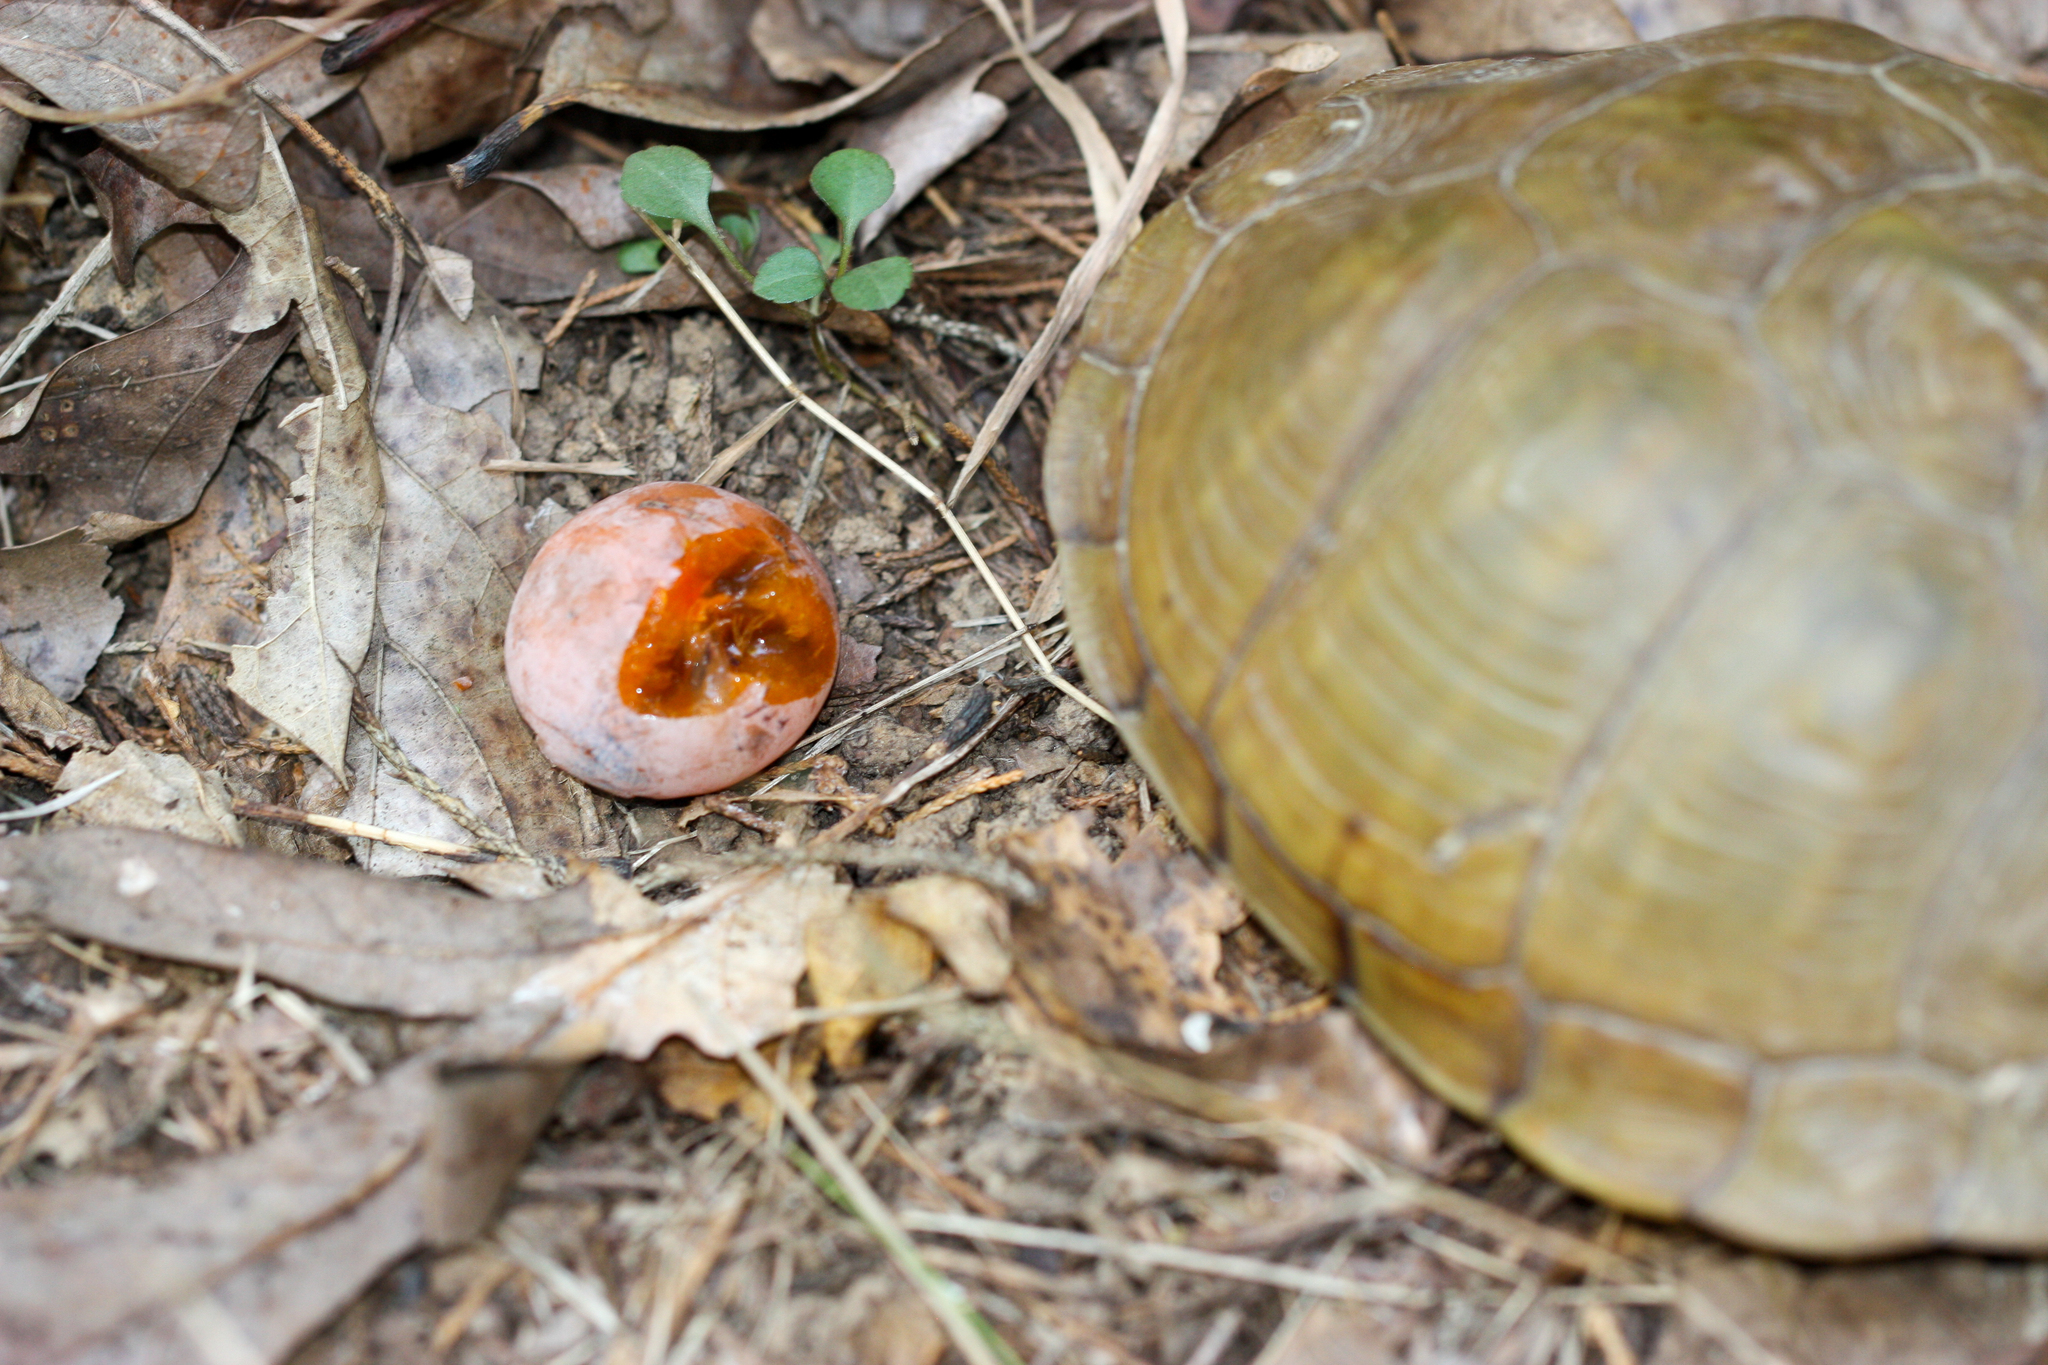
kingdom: Animalia
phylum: Chordata
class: Testudines
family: Emydidae
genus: Terrapene
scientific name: Terrapene carolina
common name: Common box turtle
